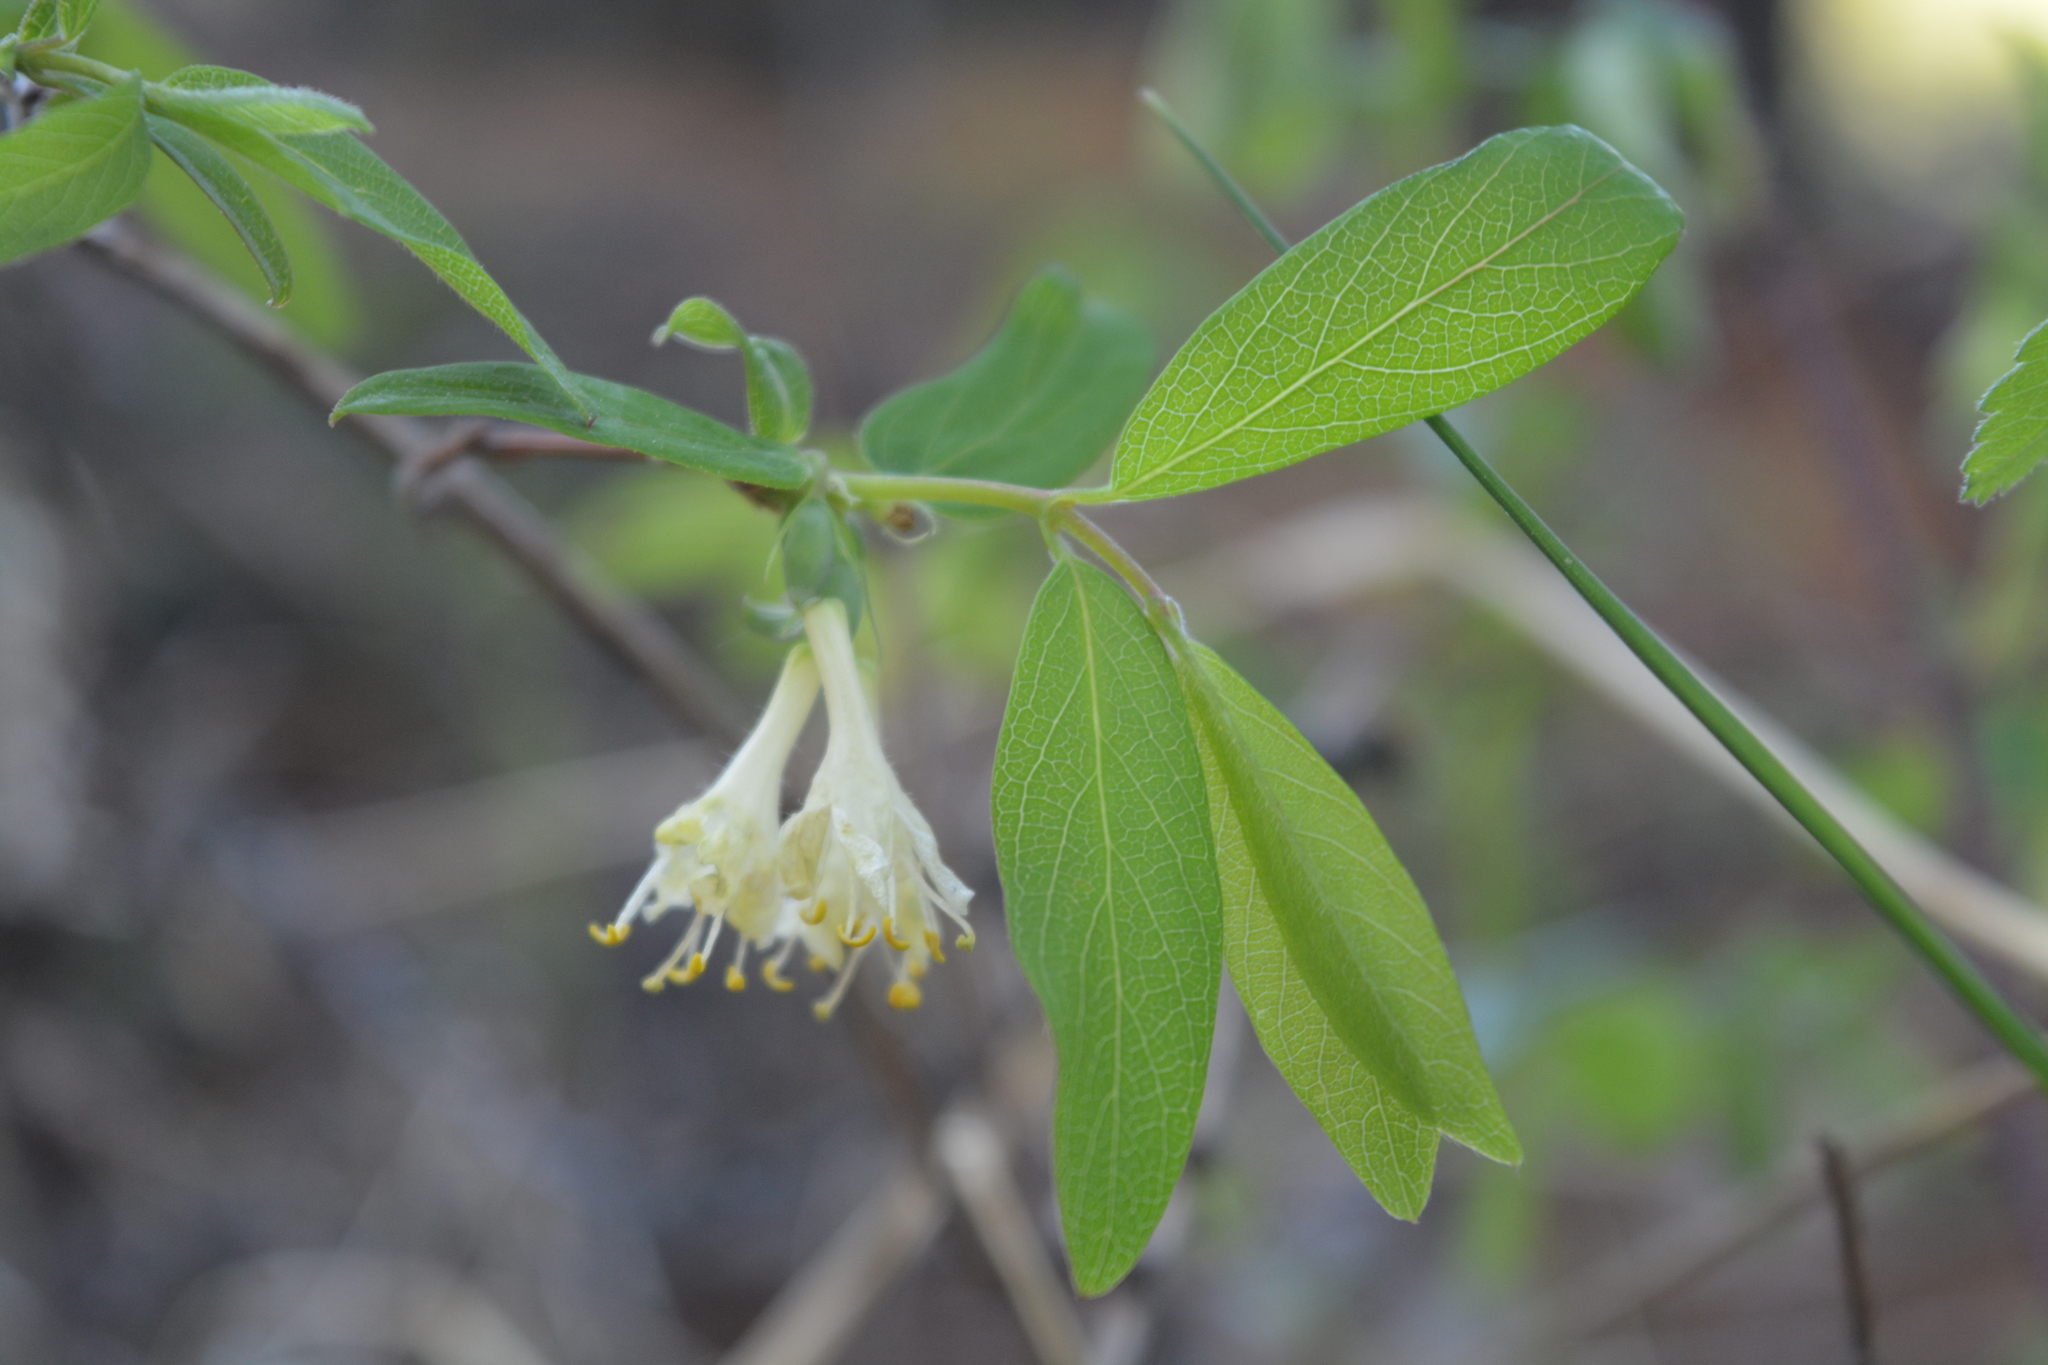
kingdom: Plantae
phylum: Tracheophyta
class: Magnoliopsida
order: Dipsacales
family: Caprifoliaceae
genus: Lonicera
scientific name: Lonicera caerulea
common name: Blue honeysuckle
